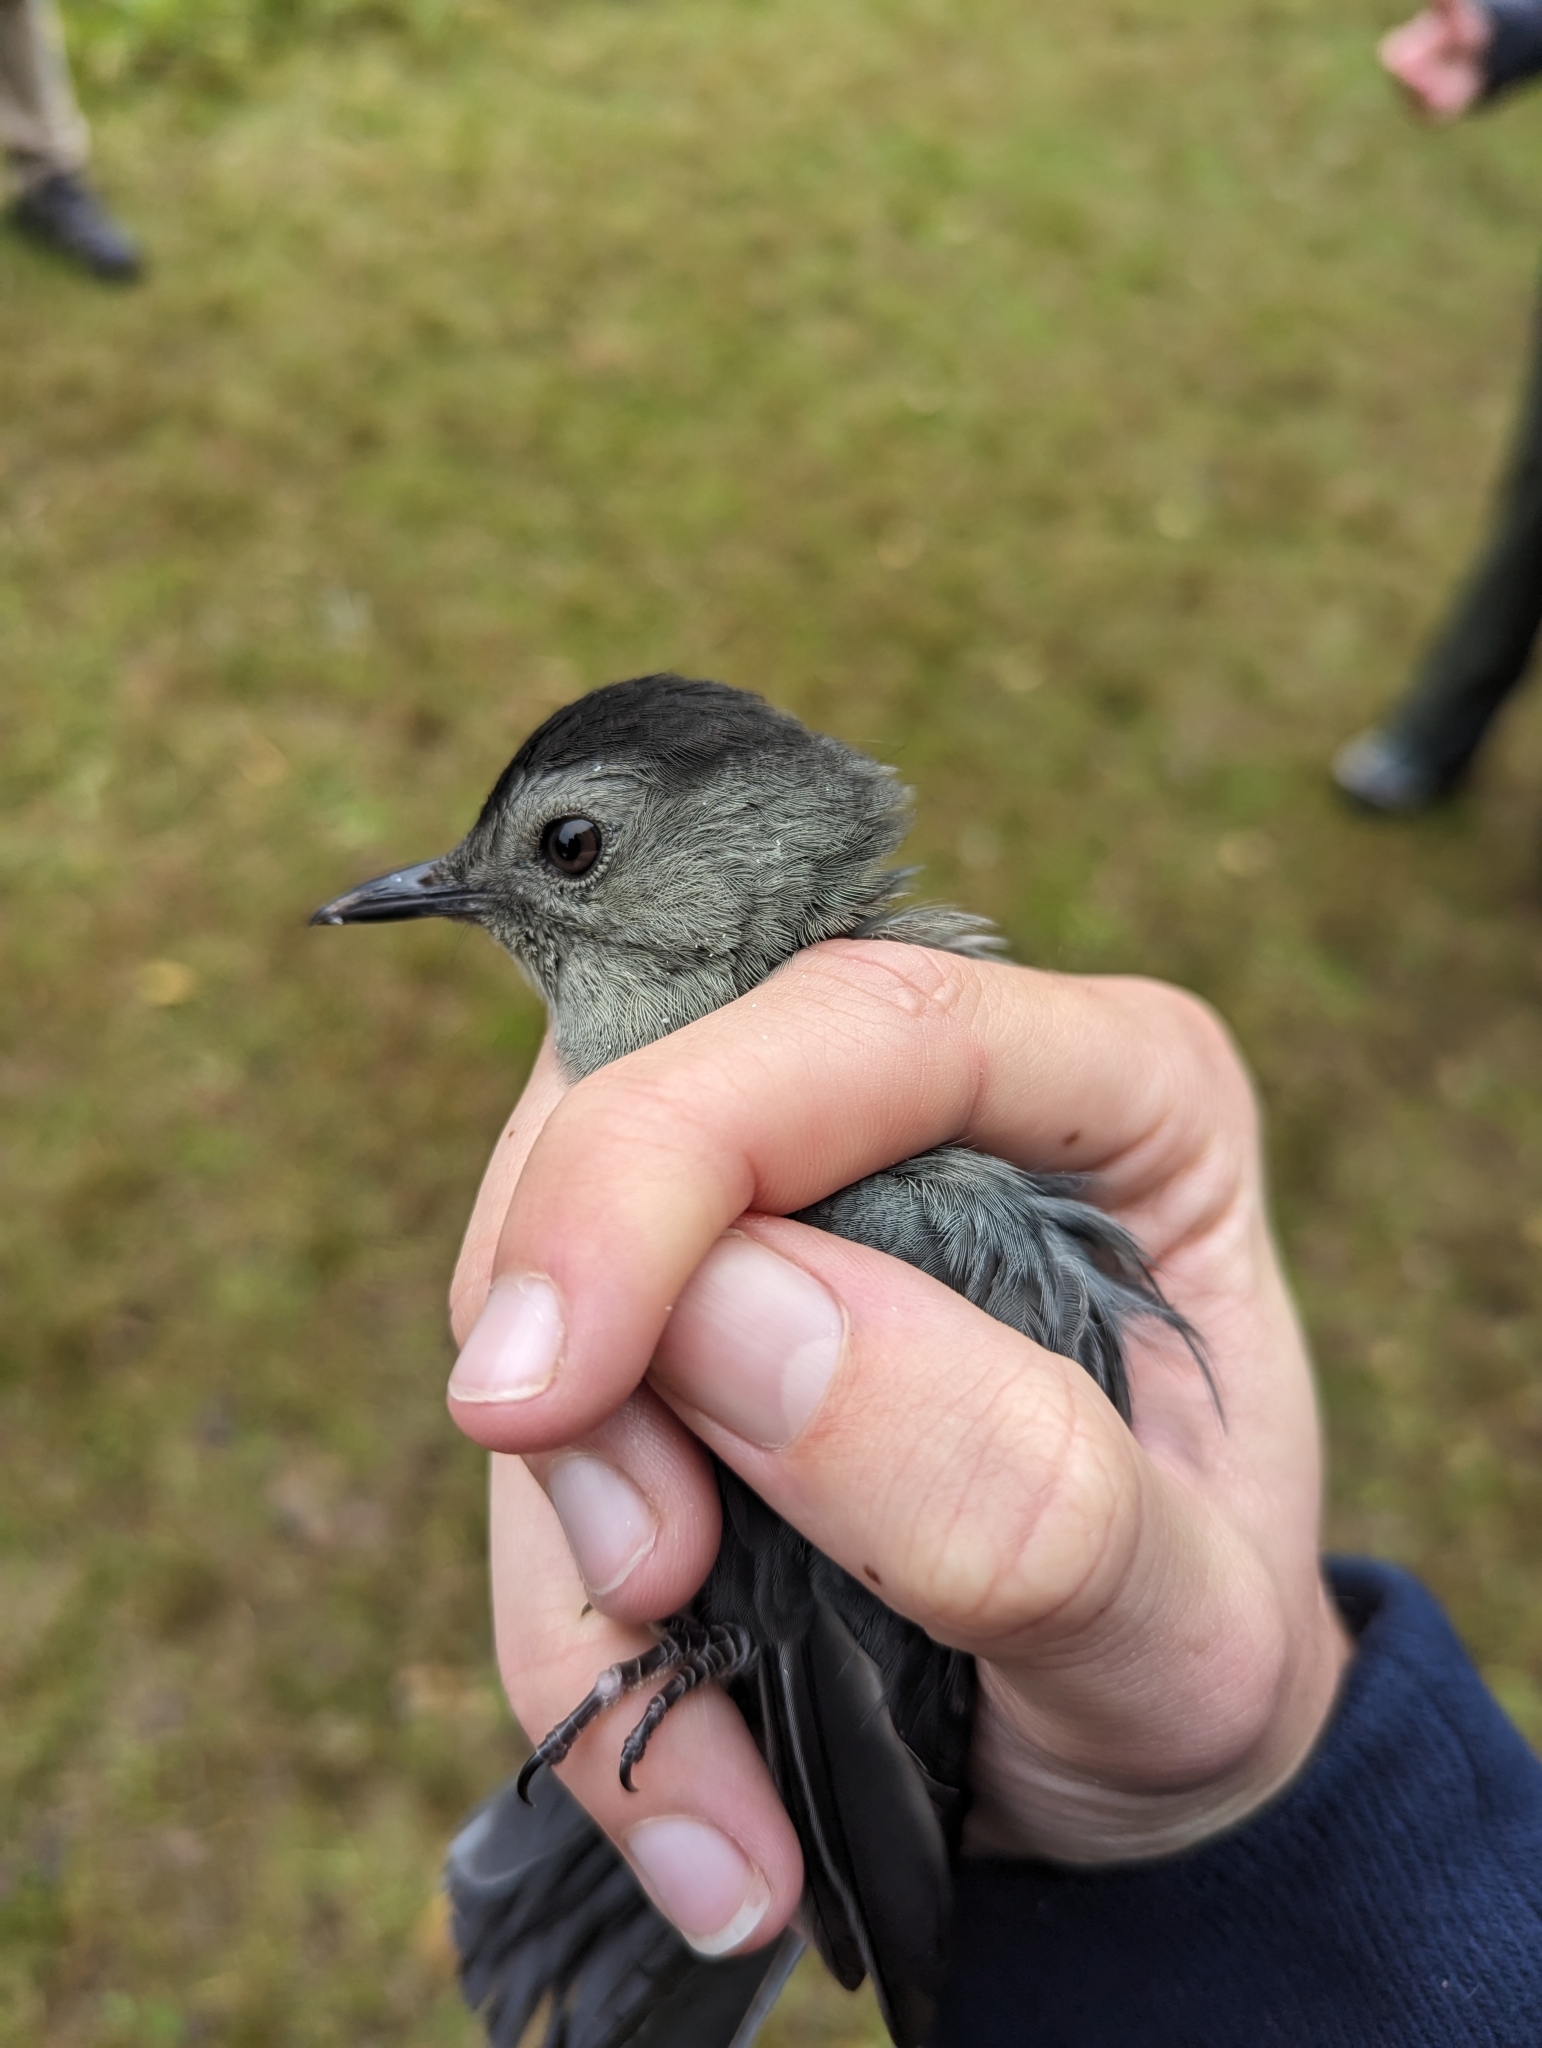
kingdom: Animalia
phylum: Chordata
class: Aves
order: Passeriformes
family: Mimidae
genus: Dumetella
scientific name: Dumetella carolinensis
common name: Gray catbird
